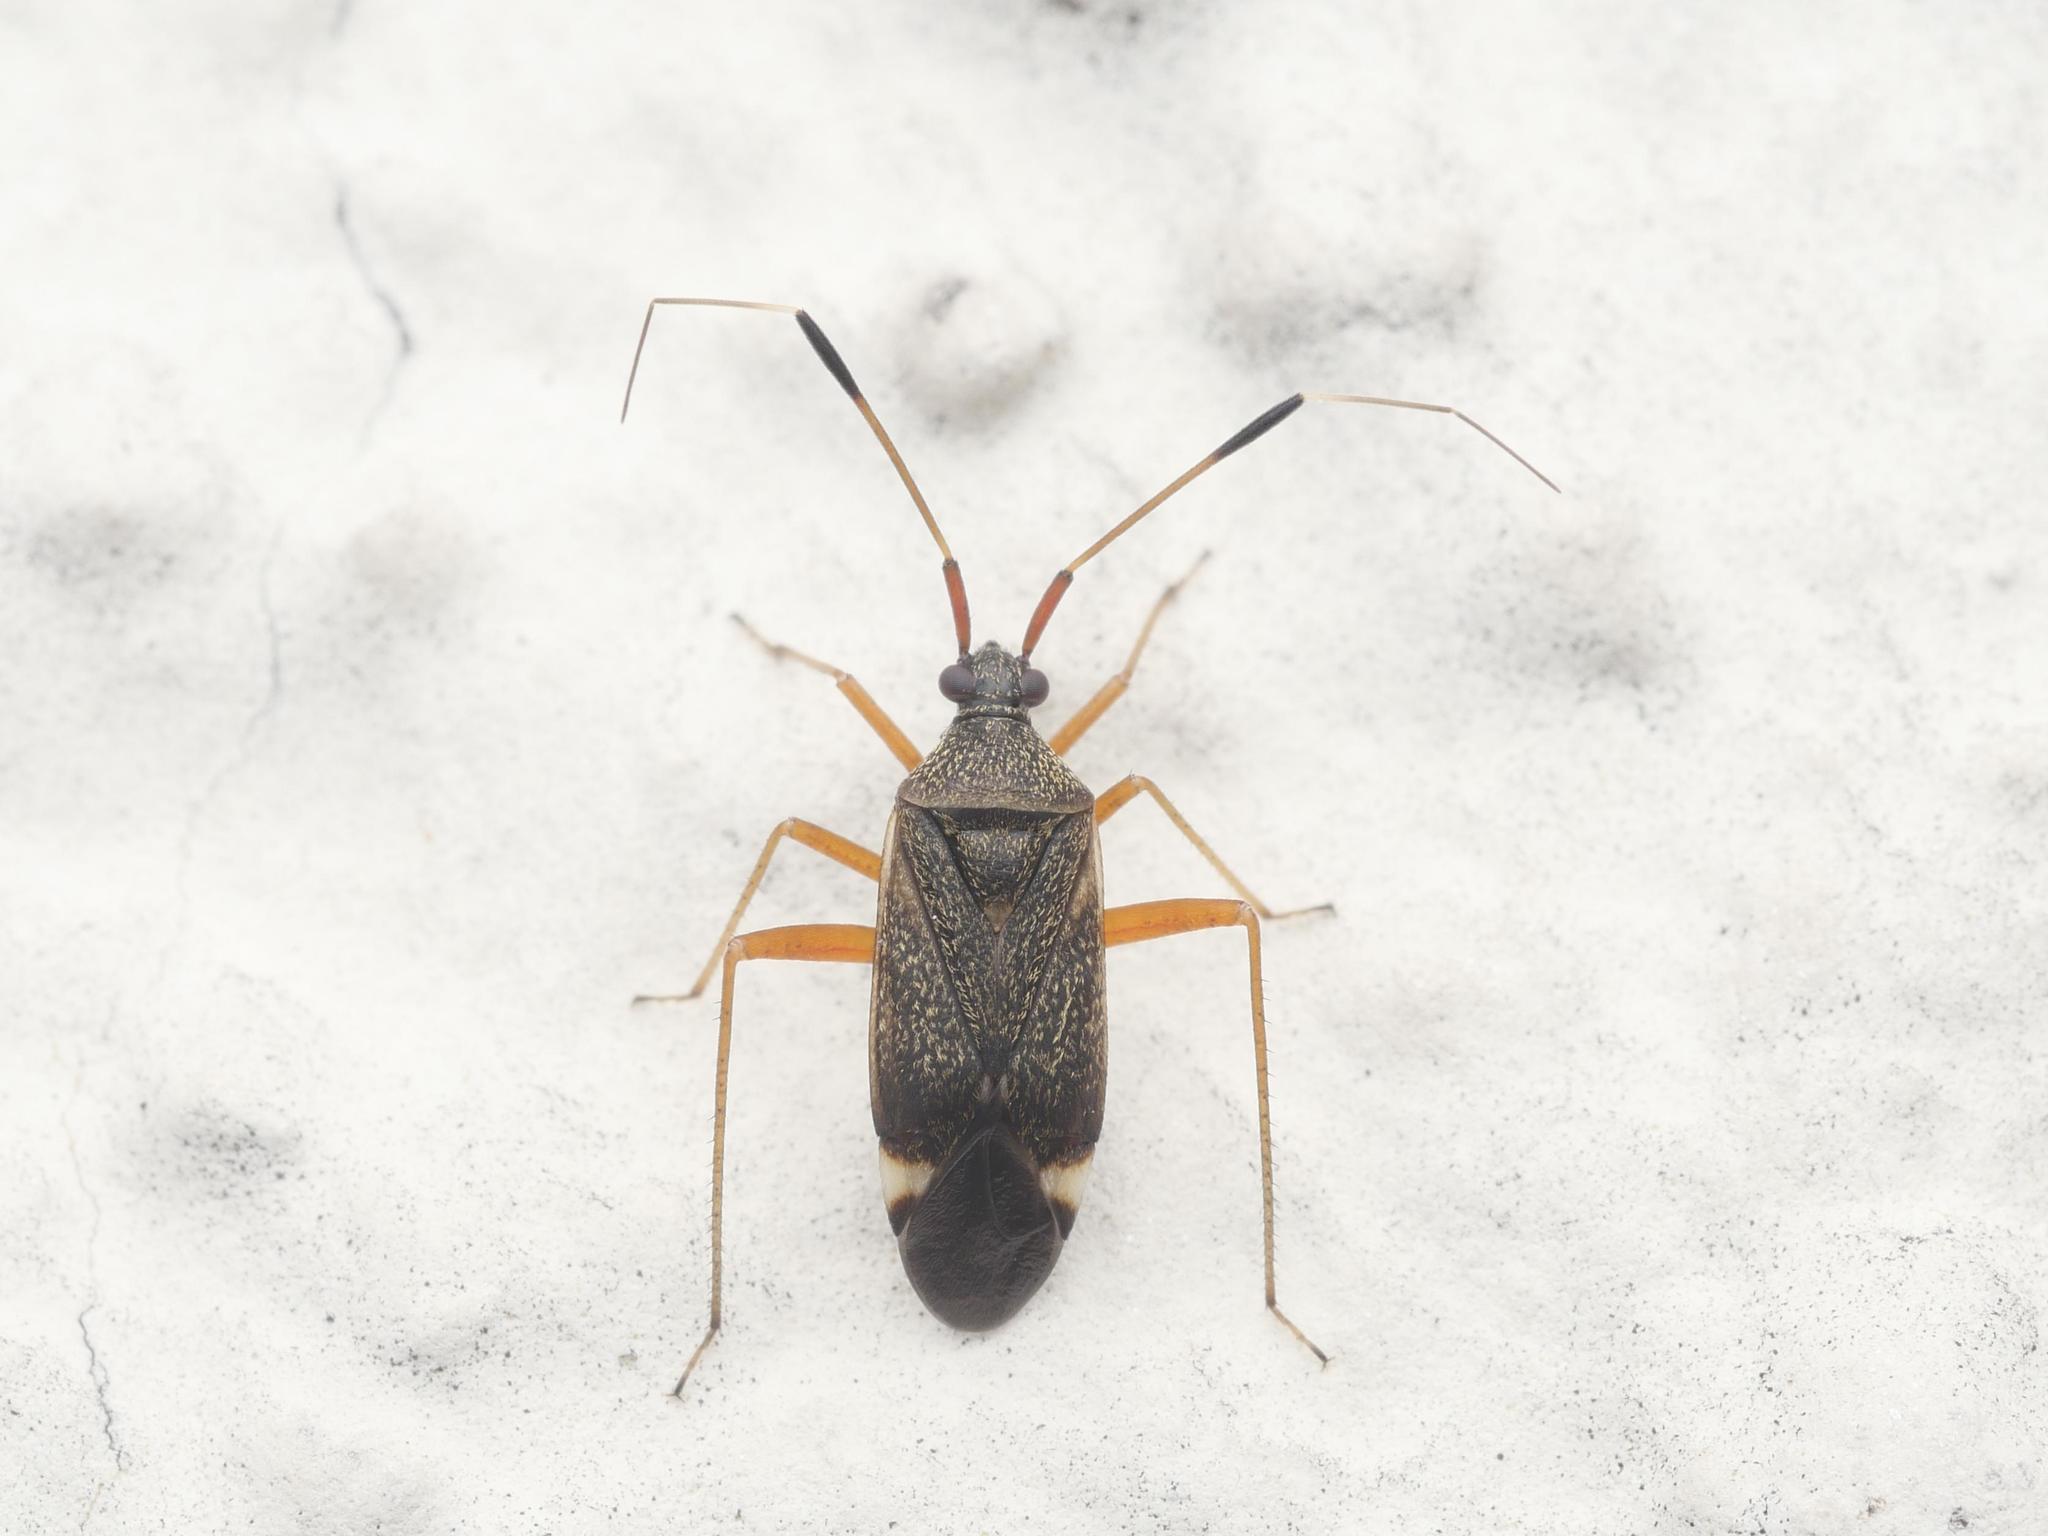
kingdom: Animalia
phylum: Arthropoda
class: Insecta
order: Hemiptera
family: Miridae
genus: Closterotomus
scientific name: Closterotomus biclavatus
